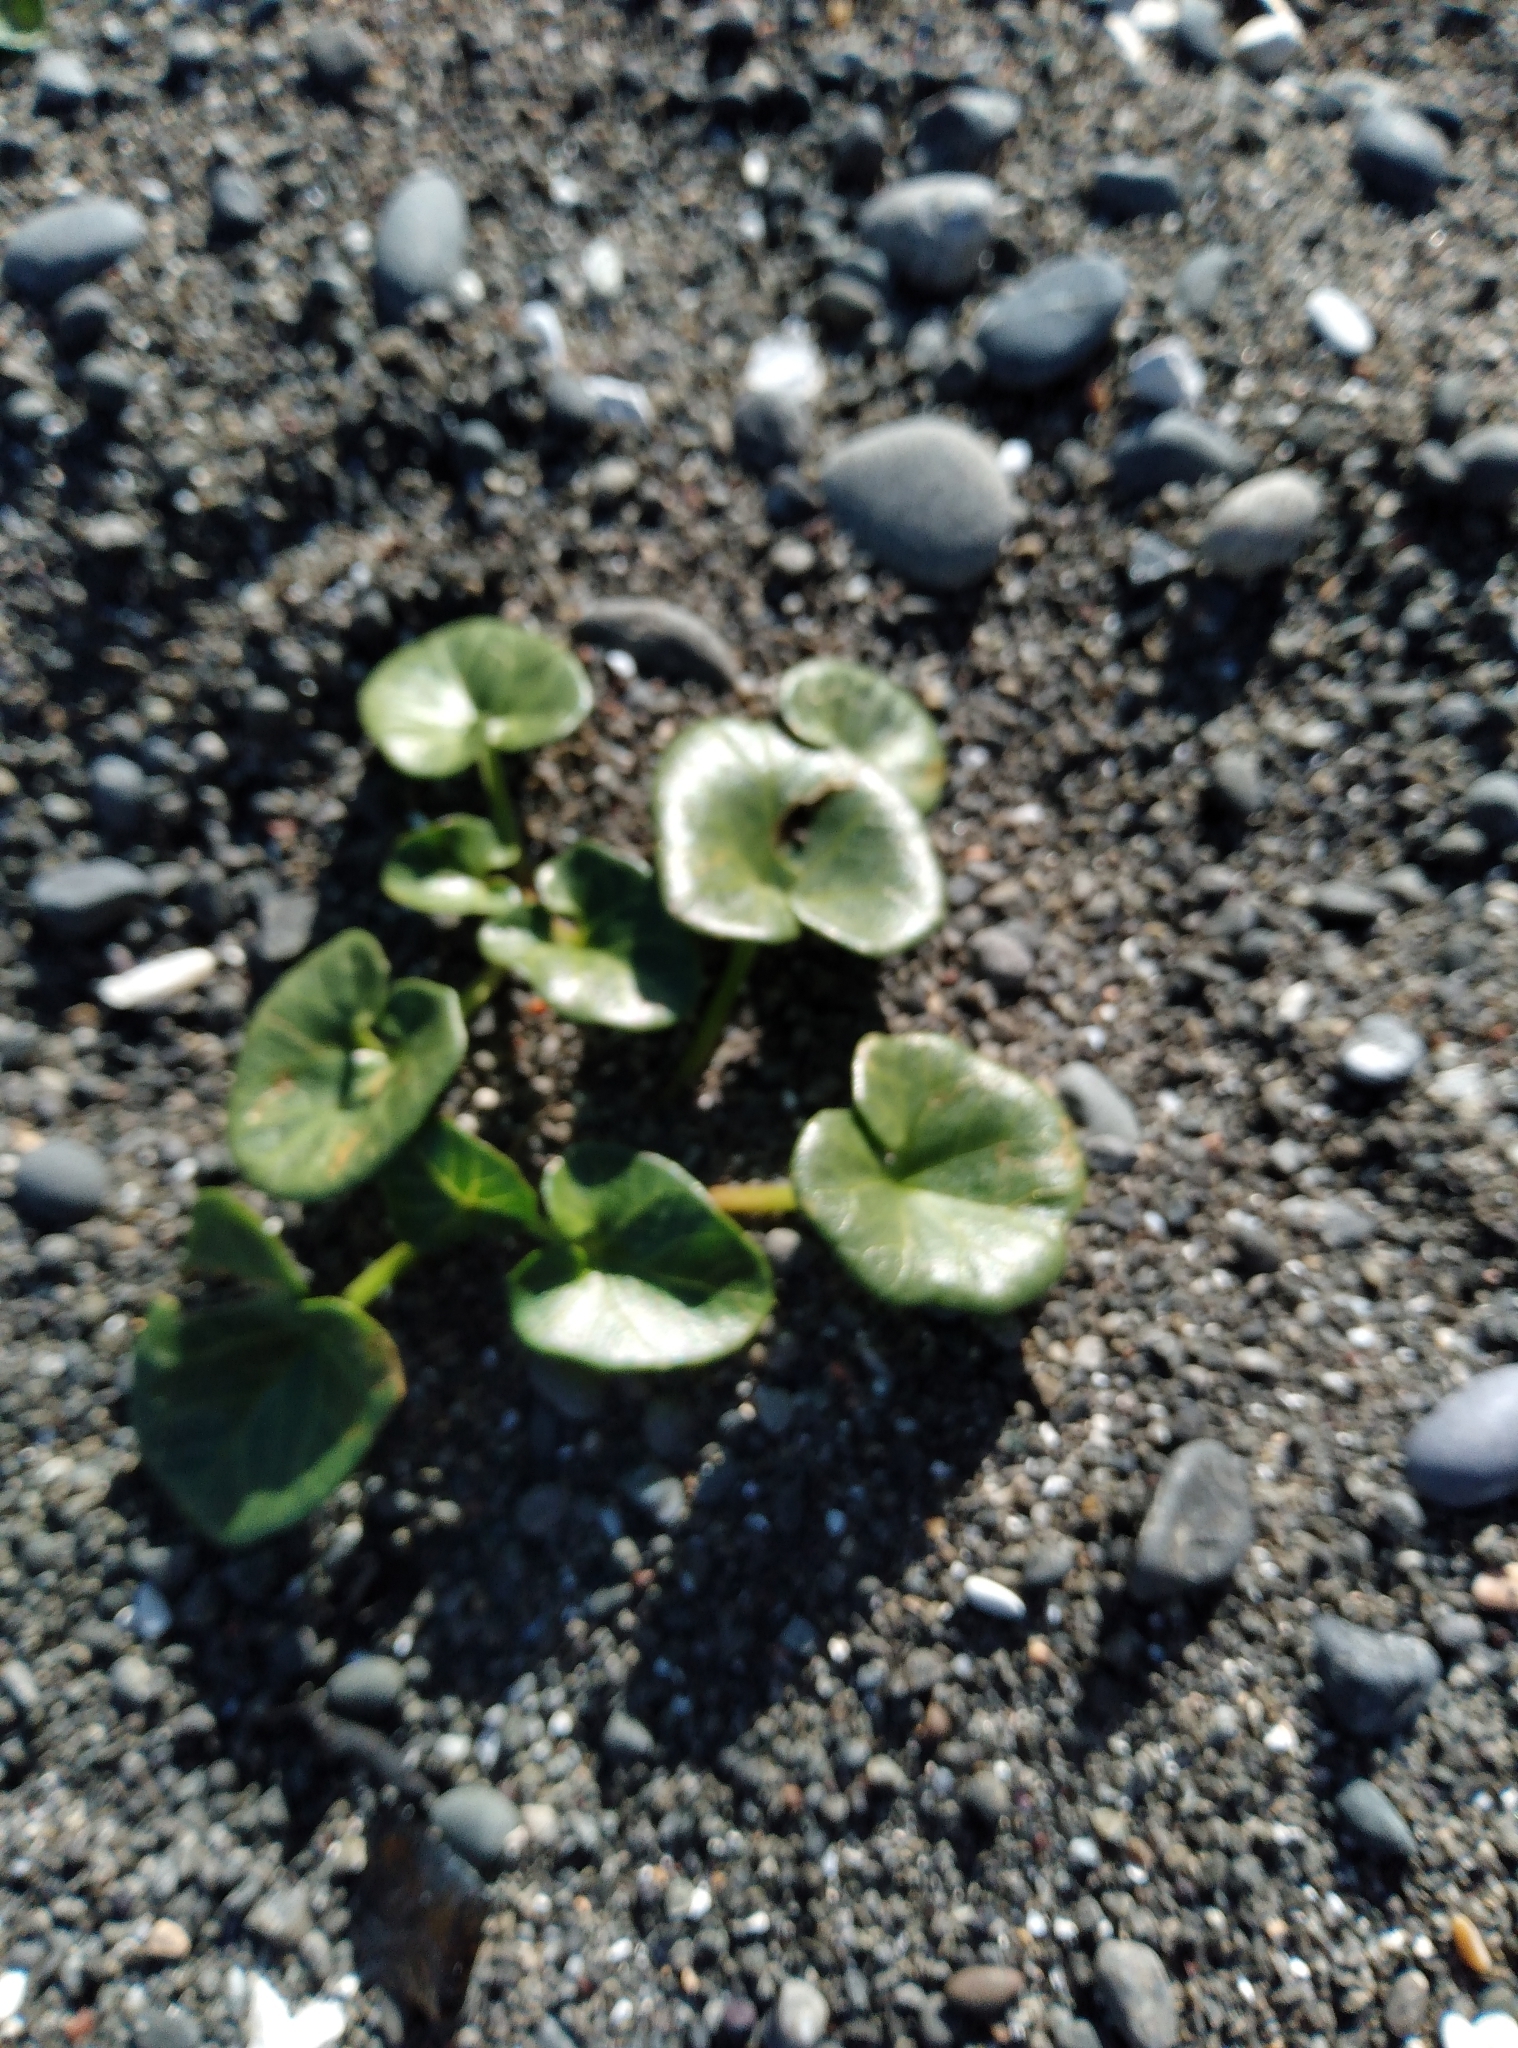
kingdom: Plantae
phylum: Tracheophyta
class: Magnoliopsida
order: Solanales
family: Convolvulaceae
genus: Calystegia
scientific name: Calystegia soldanella
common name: Sea bindweed
